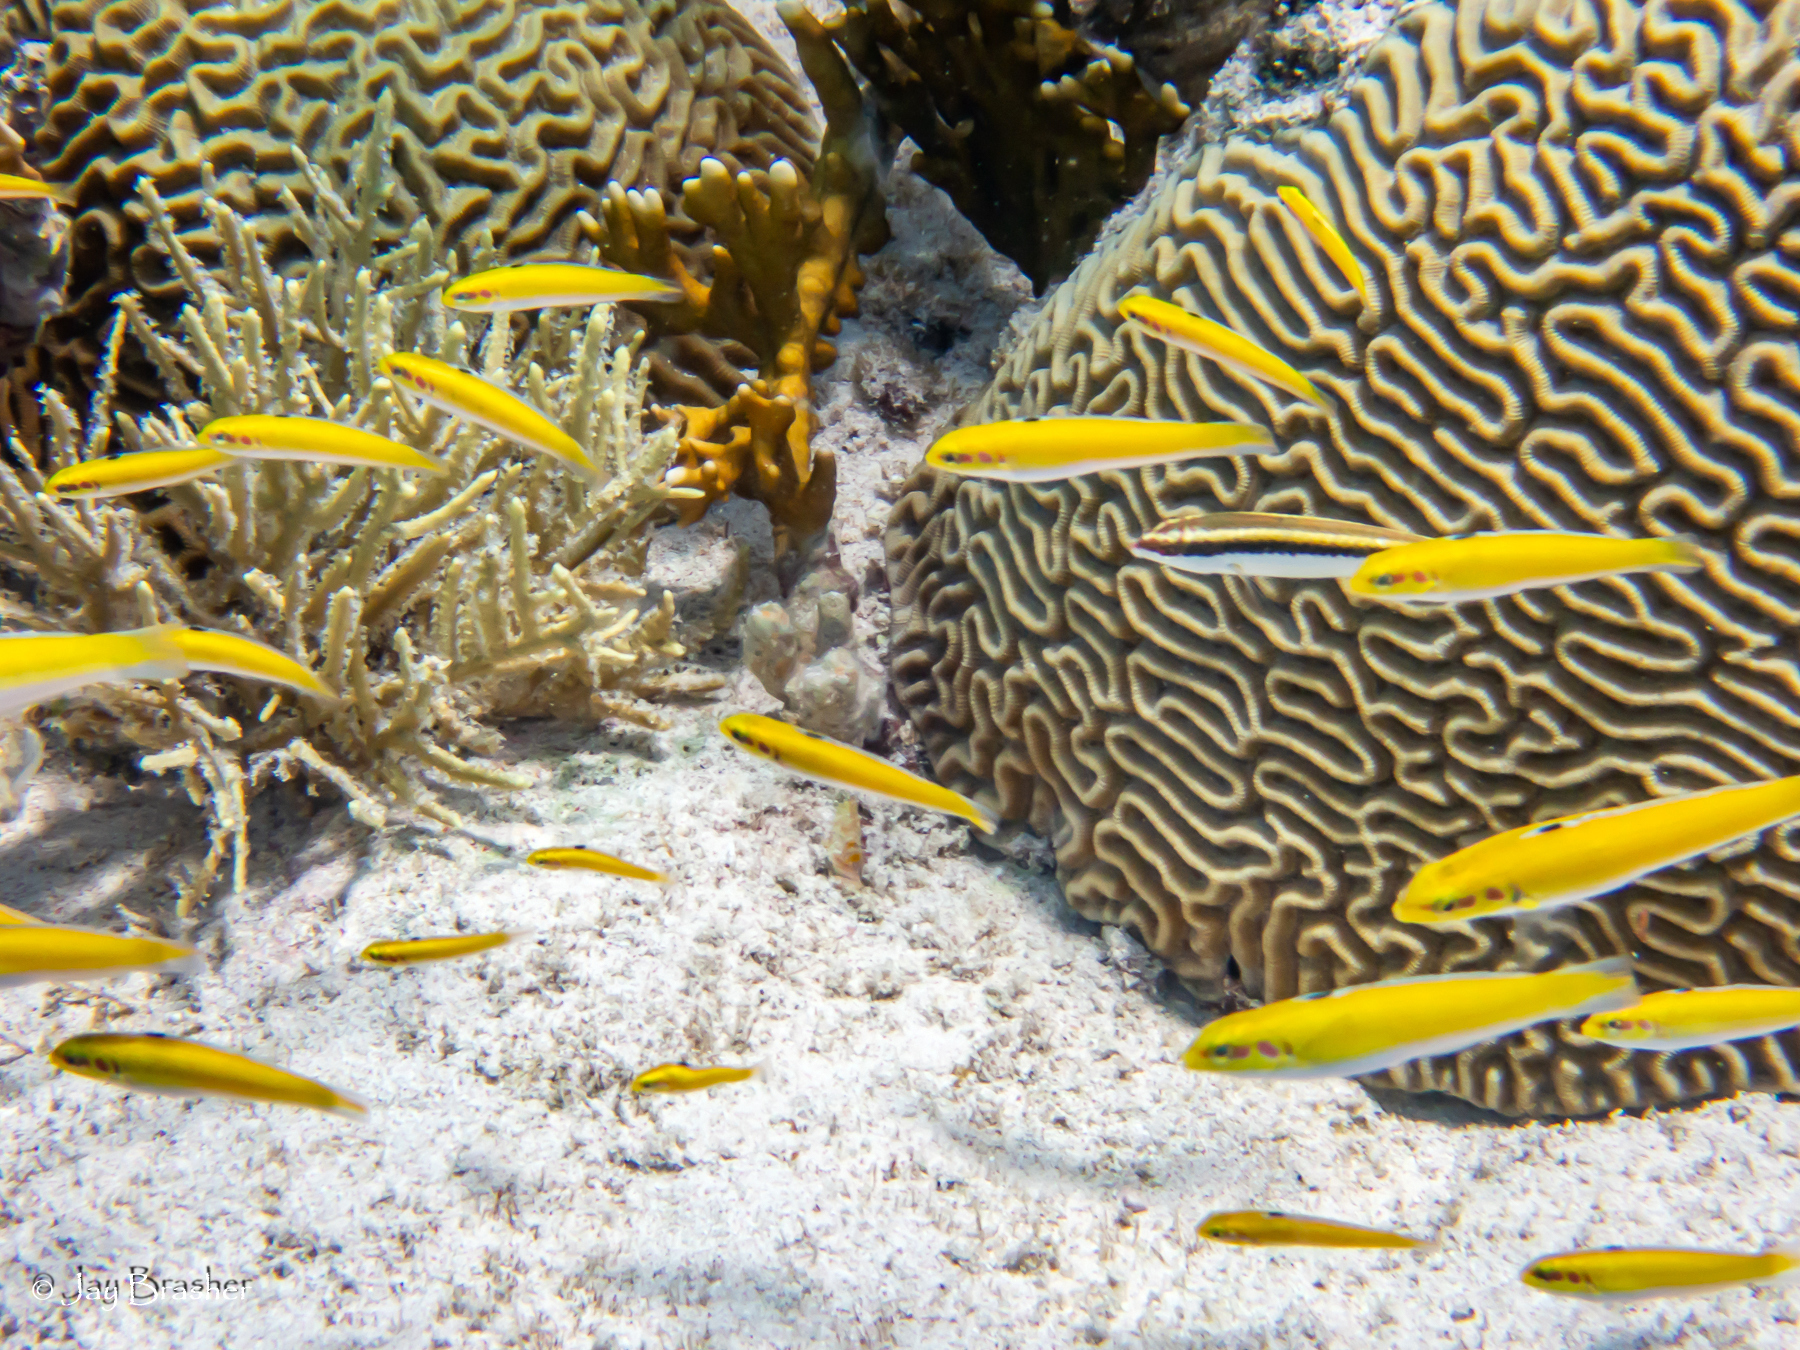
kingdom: Animalia
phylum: Chordata
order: Perciformes
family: Labridae
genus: Halichoeres
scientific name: Halichoeres maculipinna
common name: Clown wrasse
